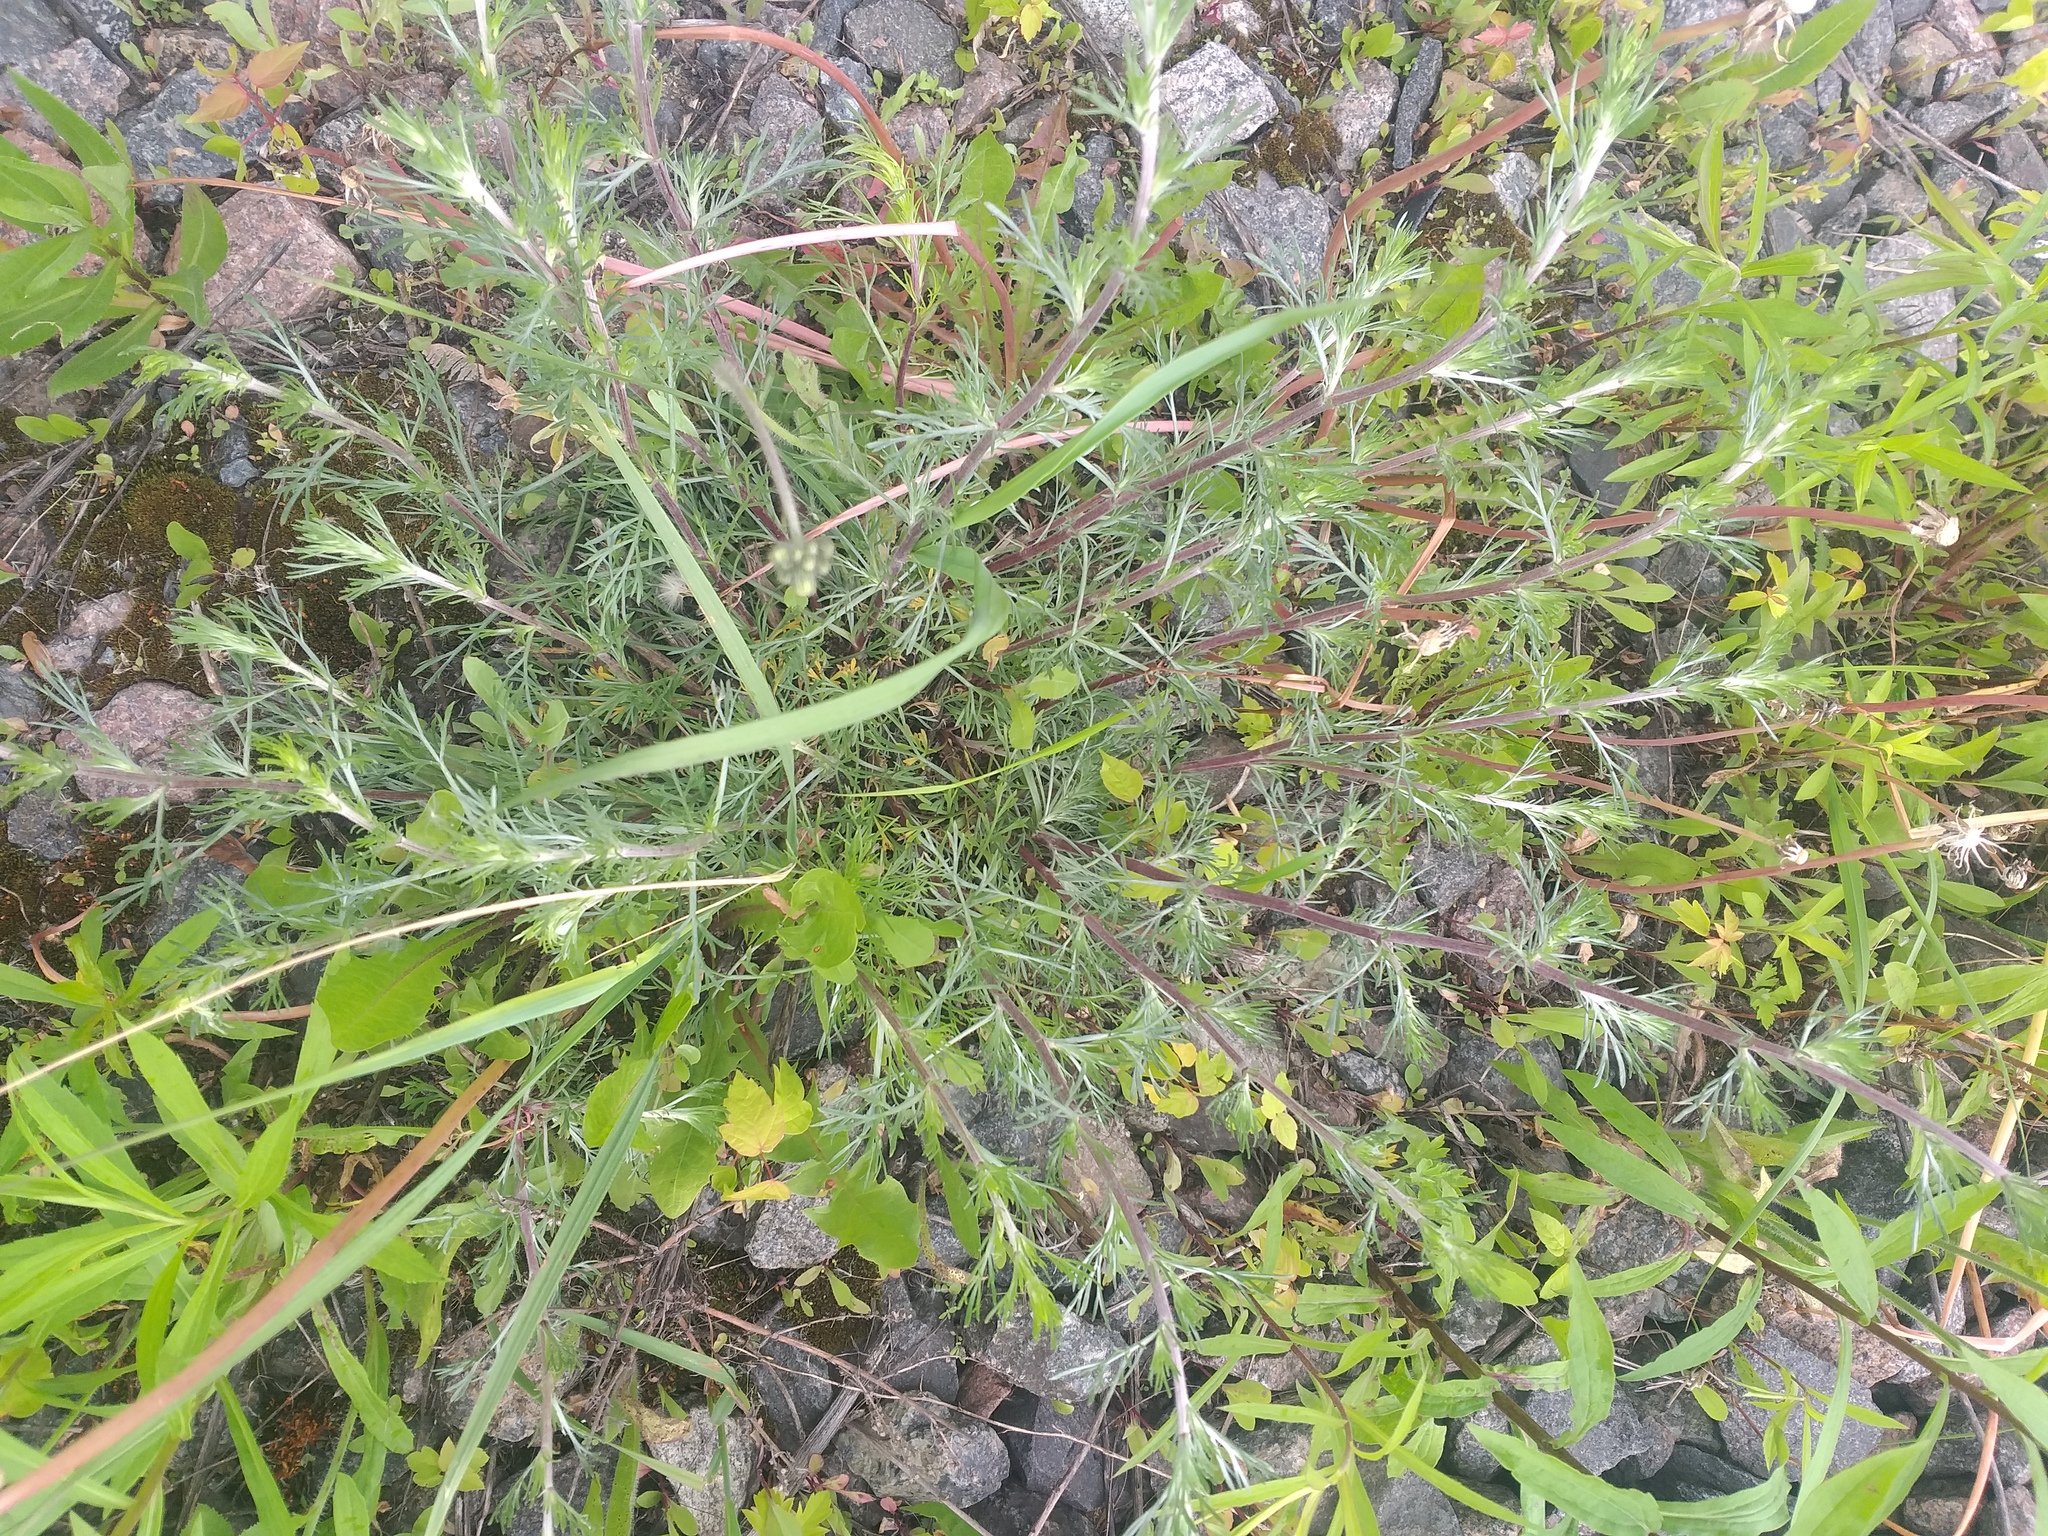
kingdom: Plantae
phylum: Tracheophyta
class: Magnoliopsida
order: Asterales
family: Asteraceae
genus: Artemisia
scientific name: Artemisia campestris
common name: Field wormwood
